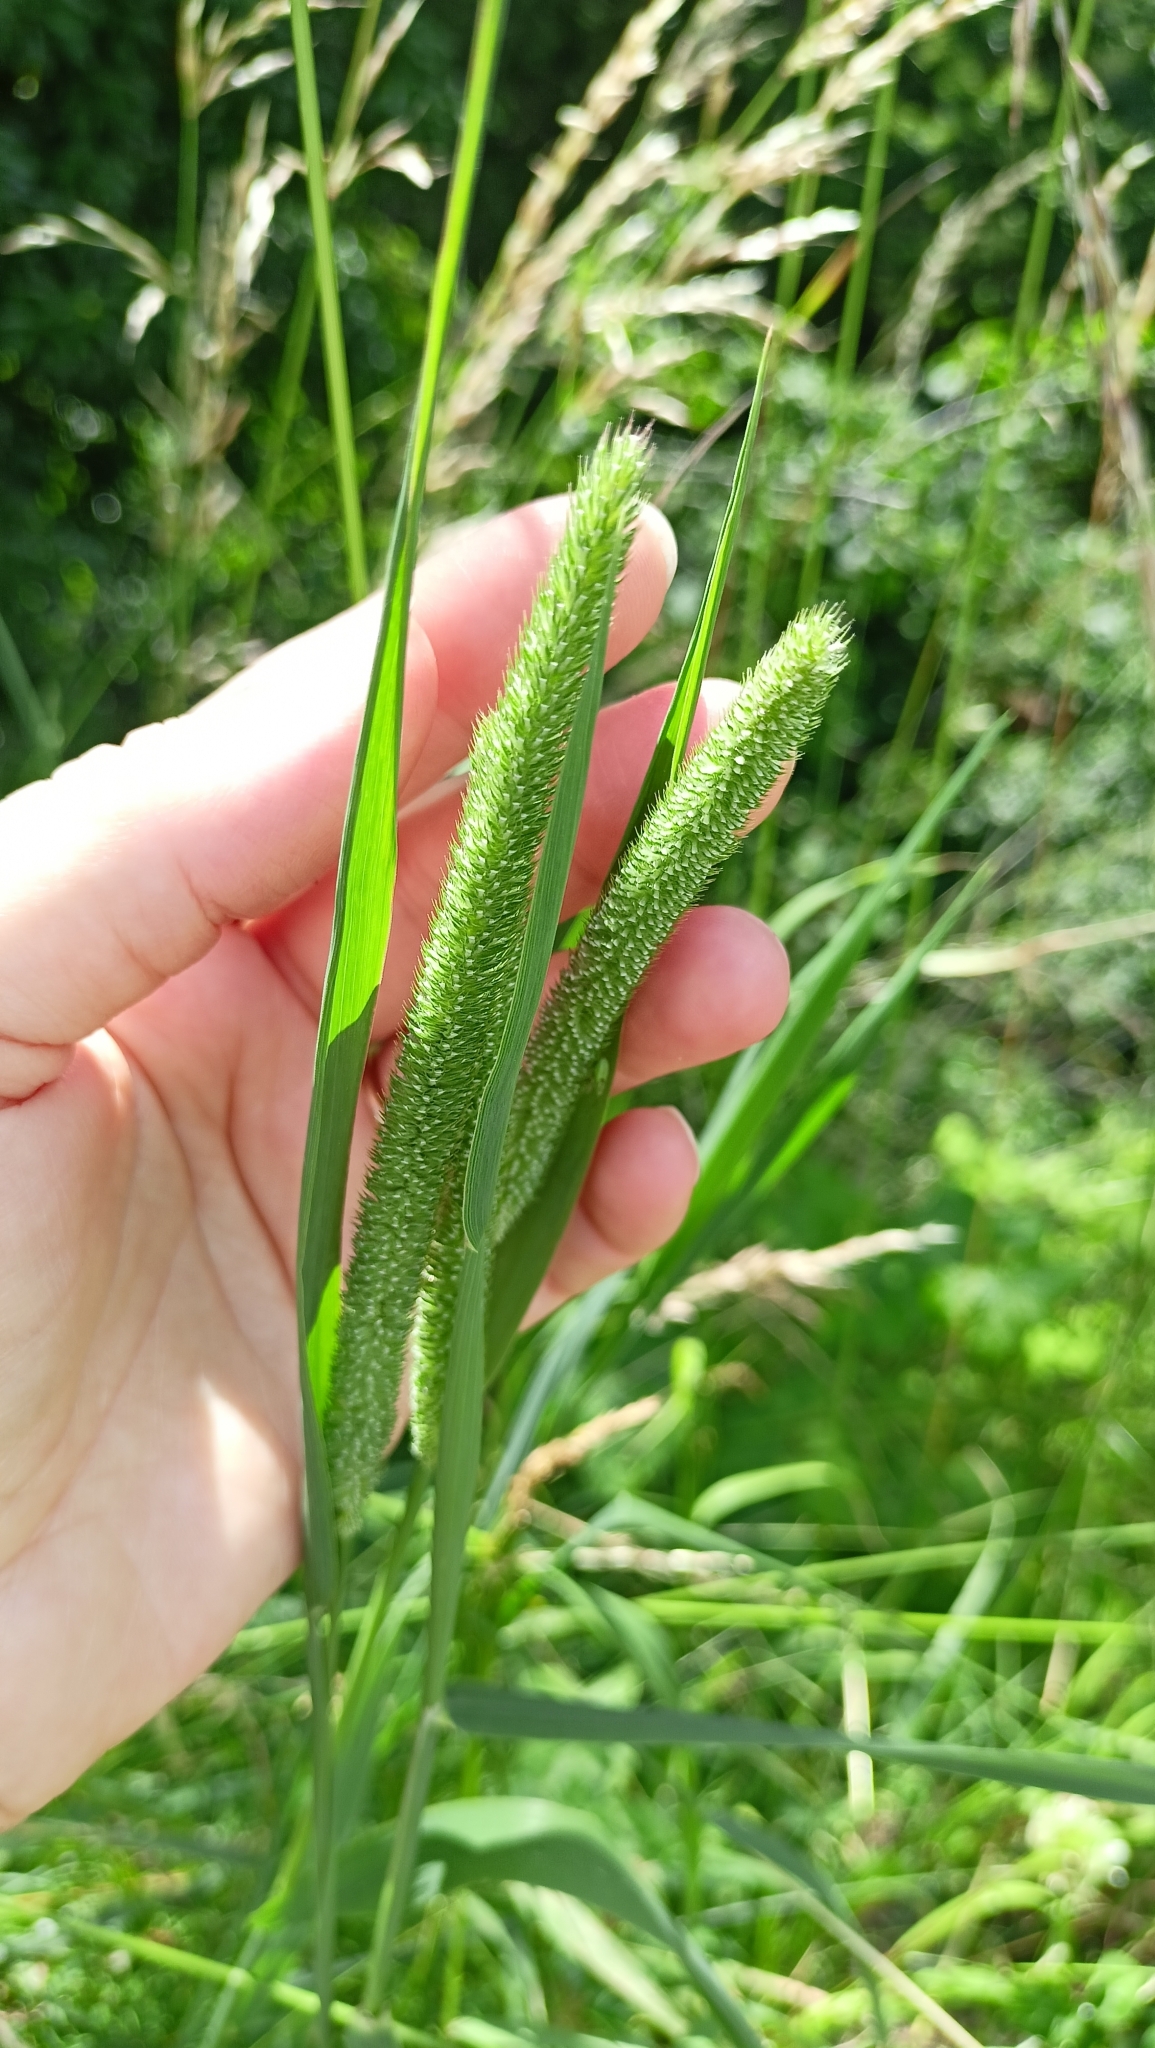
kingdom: Plantae
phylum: Tracheophyta
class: Liliopsida
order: Poales
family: Poaceae
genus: Phleum
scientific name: Phleum pratense
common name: Timothy grass
